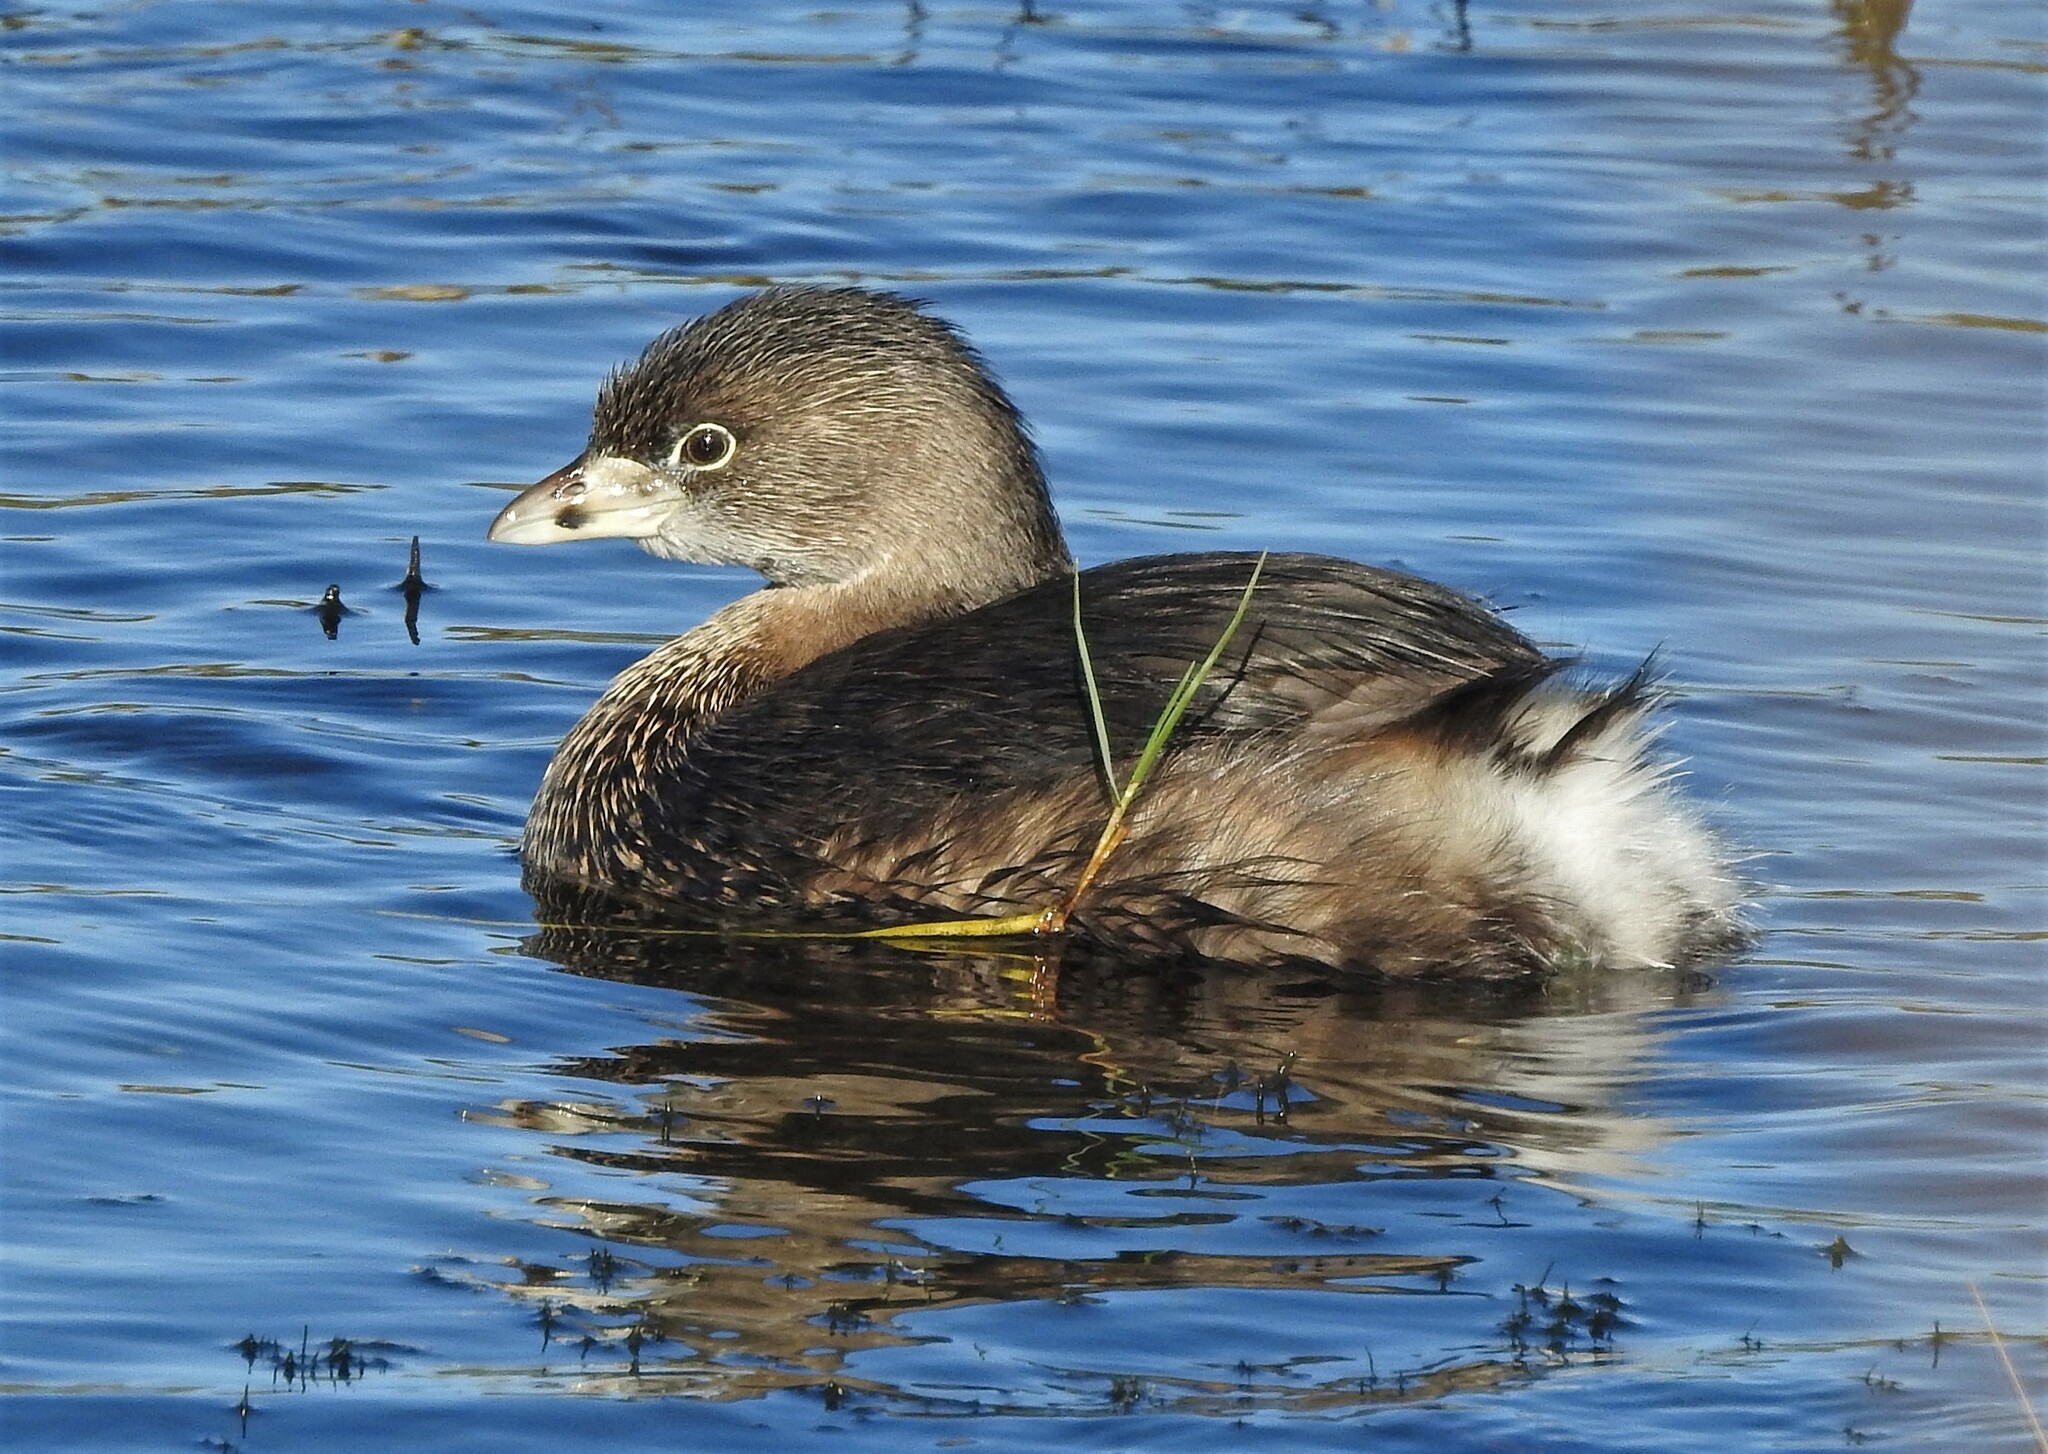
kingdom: Animalia
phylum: Chordata
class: Aves
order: Podicipediformes
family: Podicipedidae
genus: Podilymbus
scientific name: Podilymbus podiceps
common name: Pied-billed grebe
